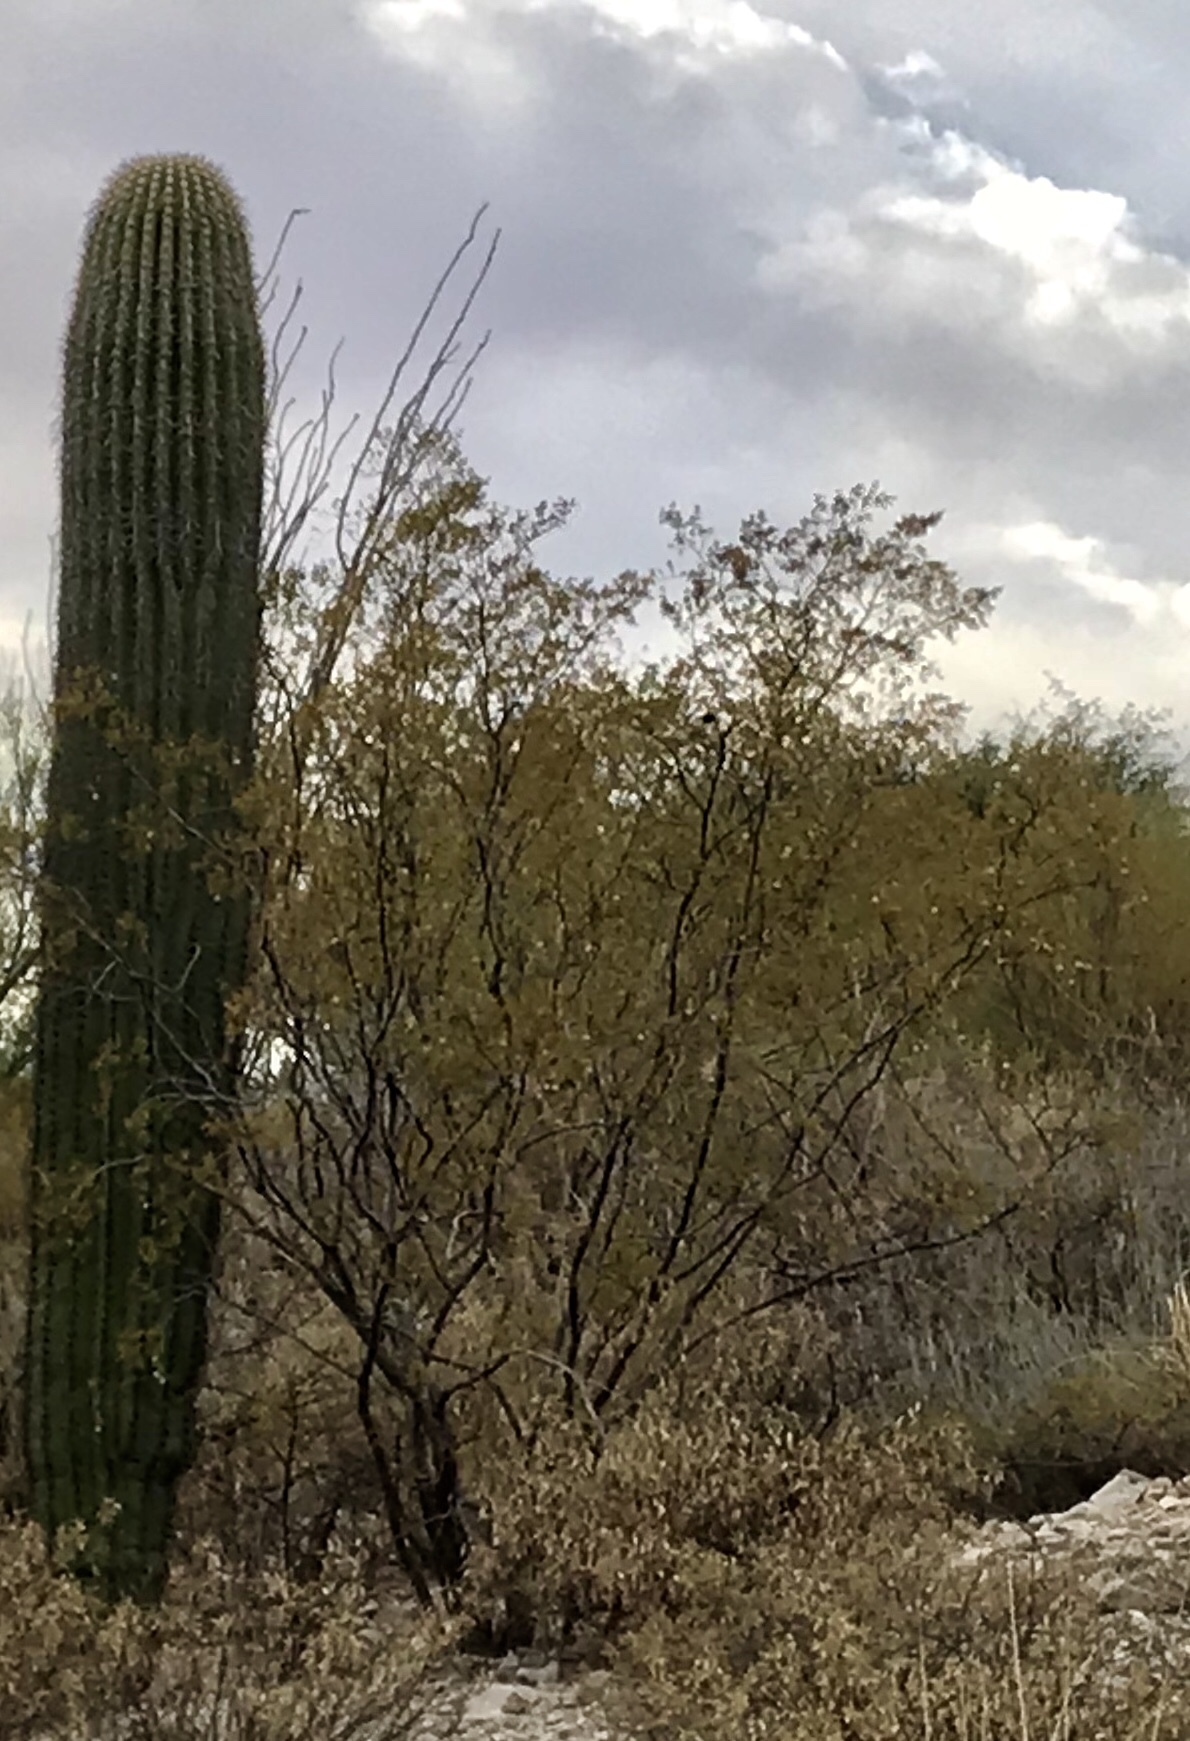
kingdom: Plantae
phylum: Tracheophyta
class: Magnoliopsida
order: Zygophyllales
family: Zygophyllaceae
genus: Larrea
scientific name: Larrea tridentata
